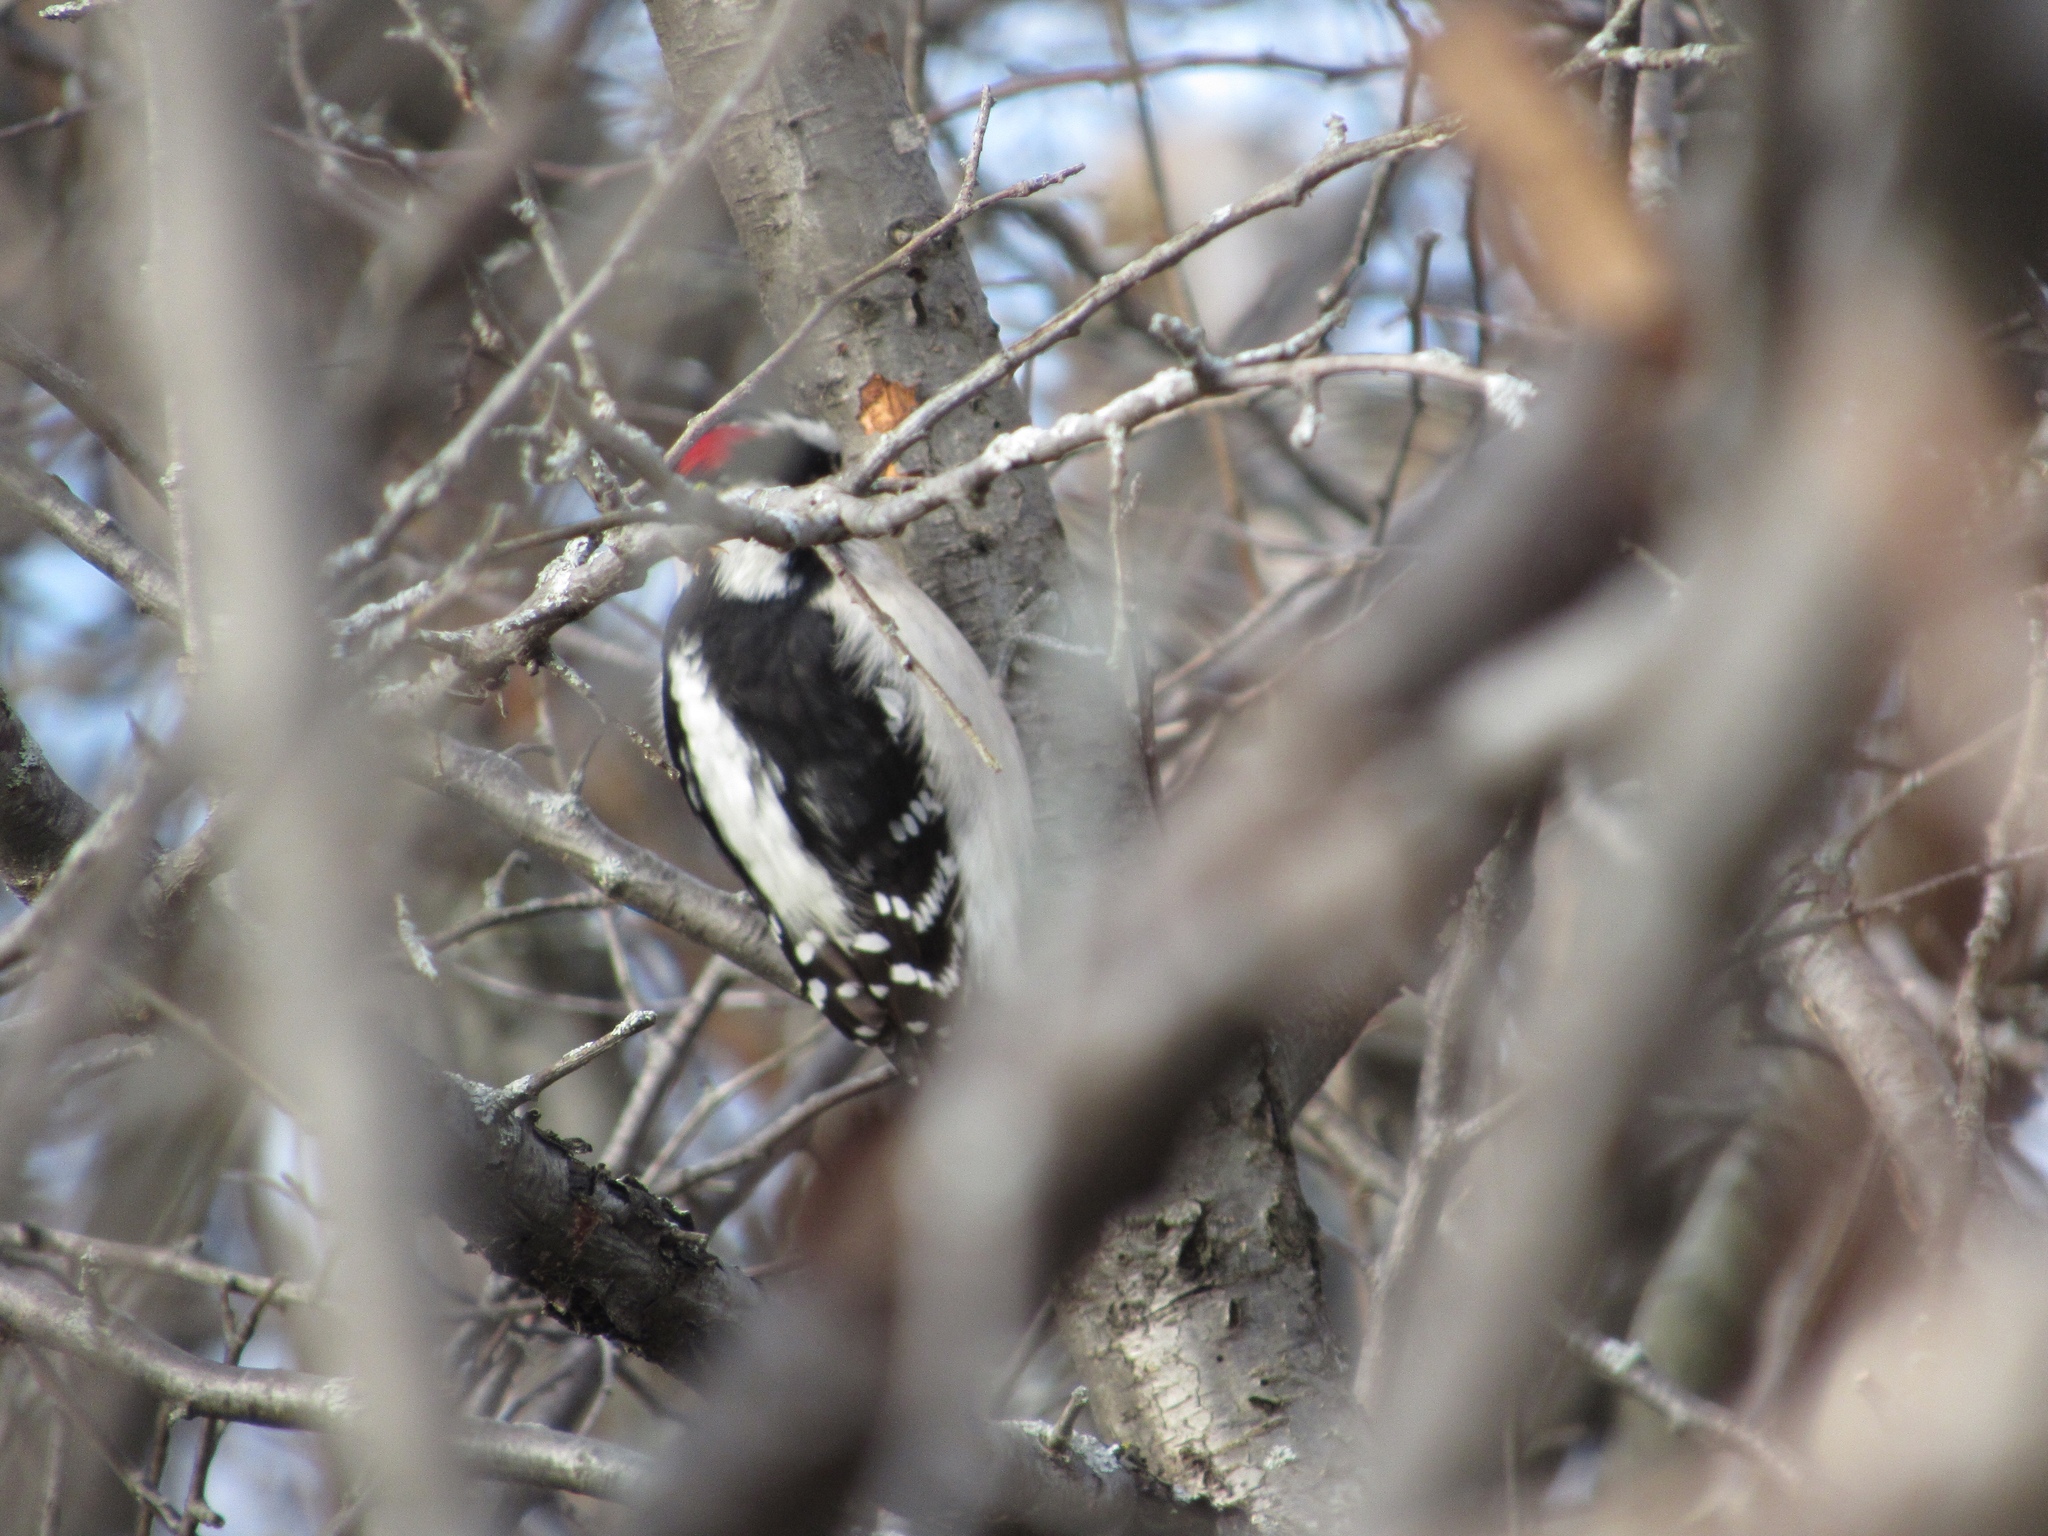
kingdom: Animalia
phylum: Chordata
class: Aves
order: Piciformes
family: Picidae
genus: Dryobates
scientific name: Dryobates pubescens
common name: Downy woodpecker
